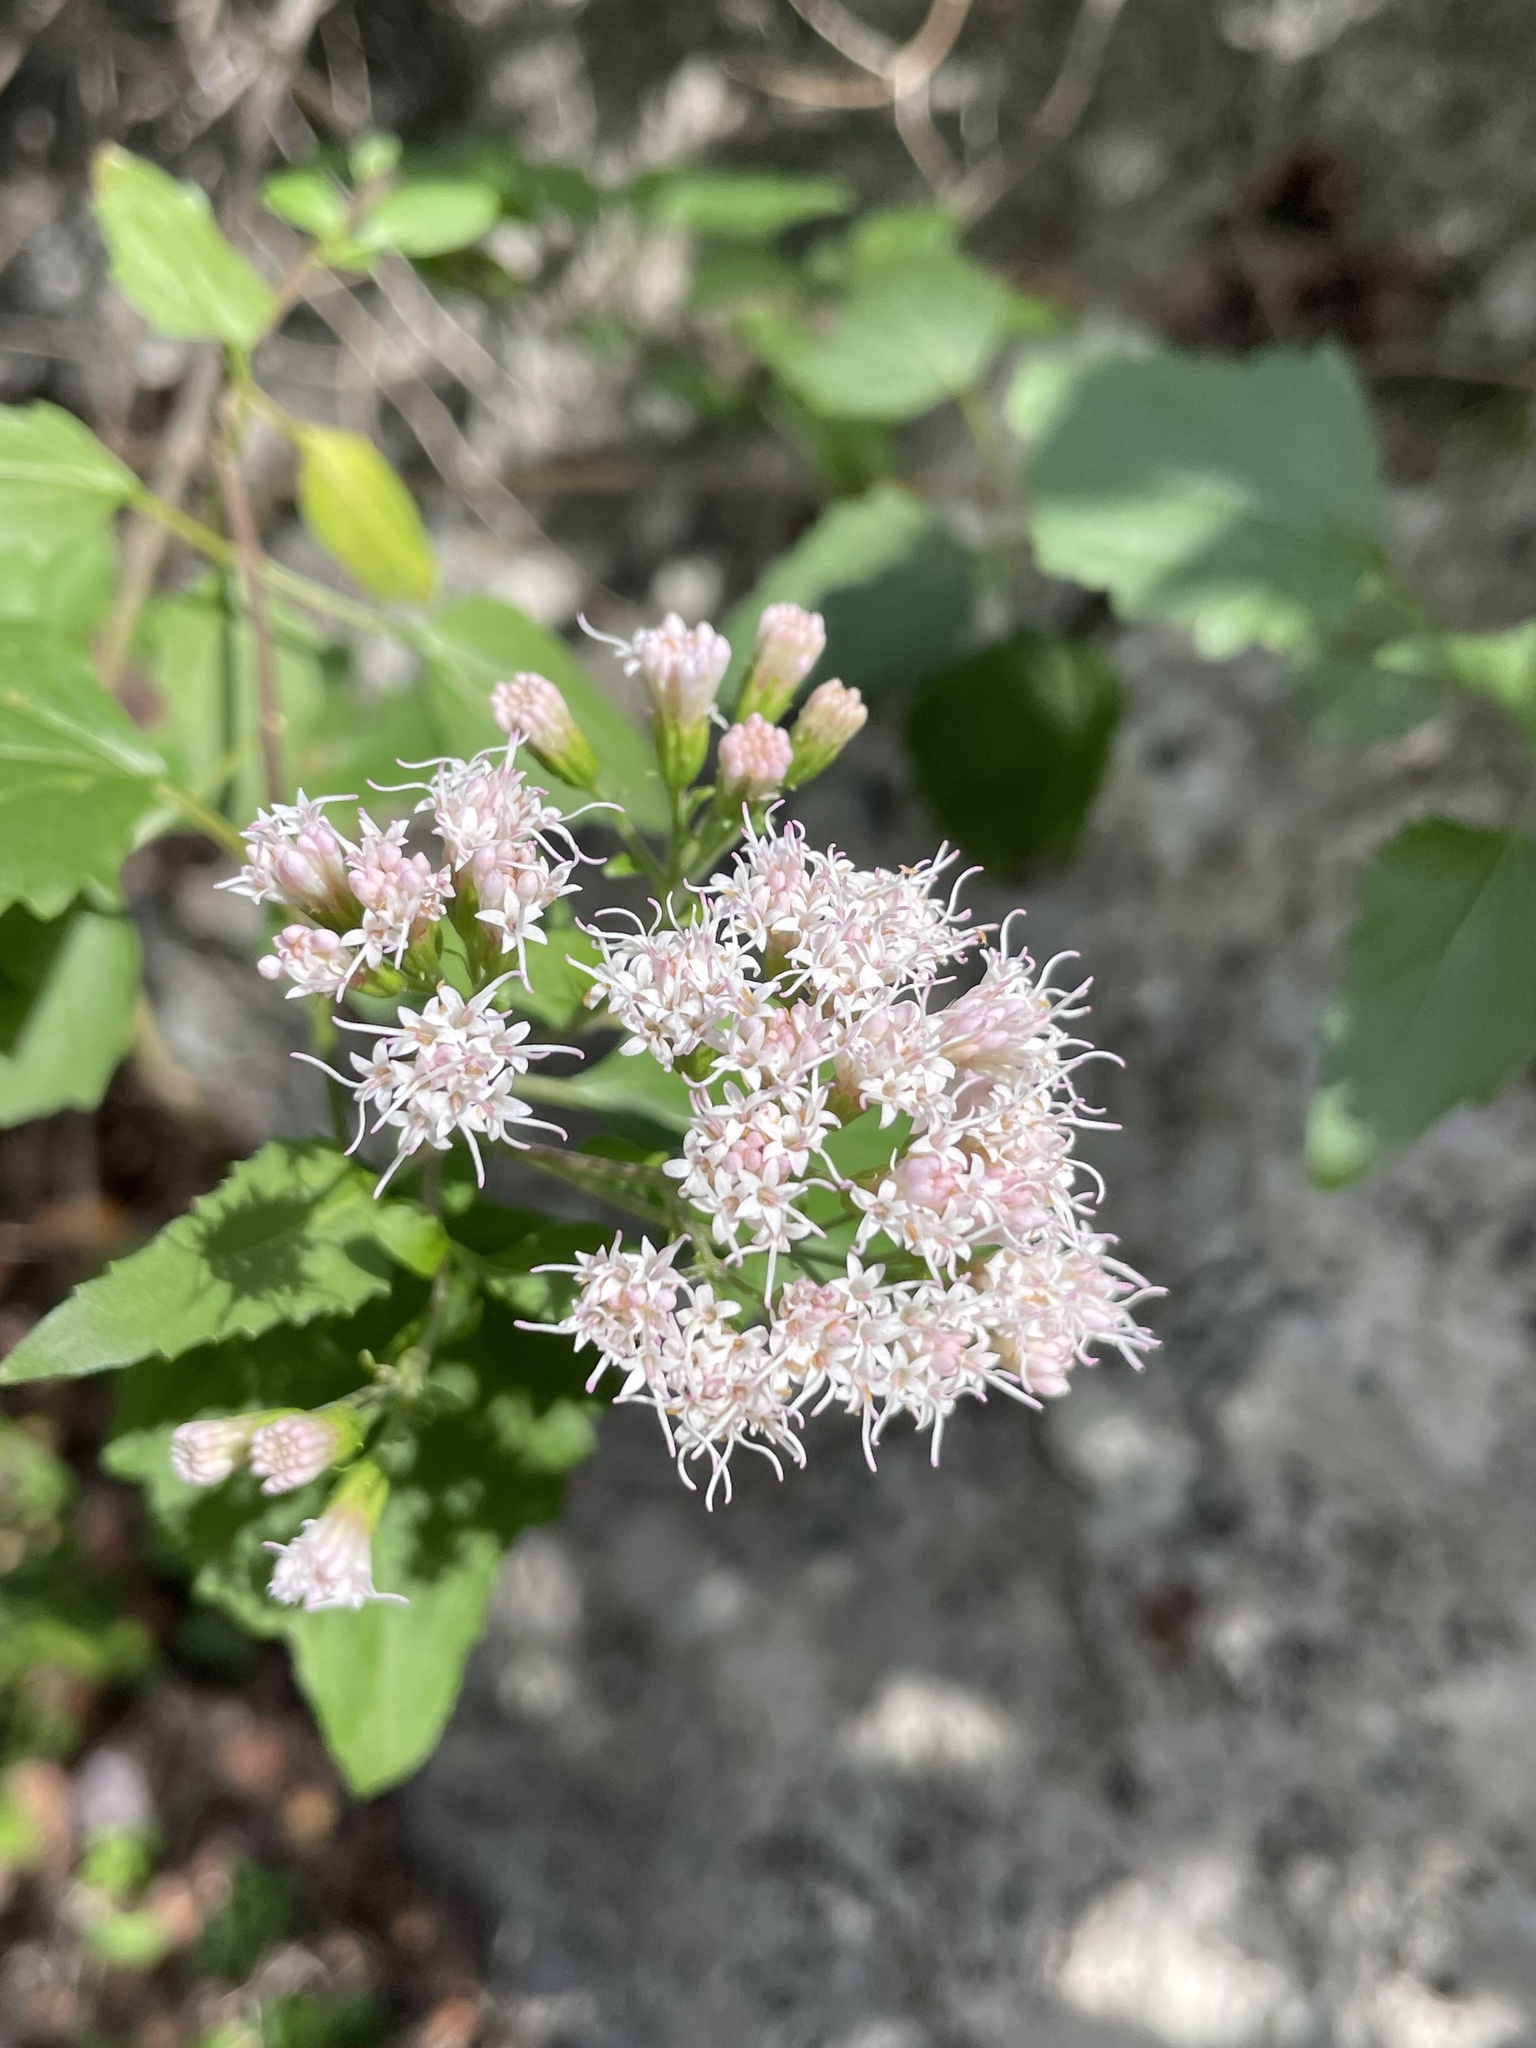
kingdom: Plantae
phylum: Tracheophyta
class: Magnoliopsida
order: Asterales
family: Asteraceae
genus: Ageratina
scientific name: Ageratina havanensis
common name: Havana snakeroot
